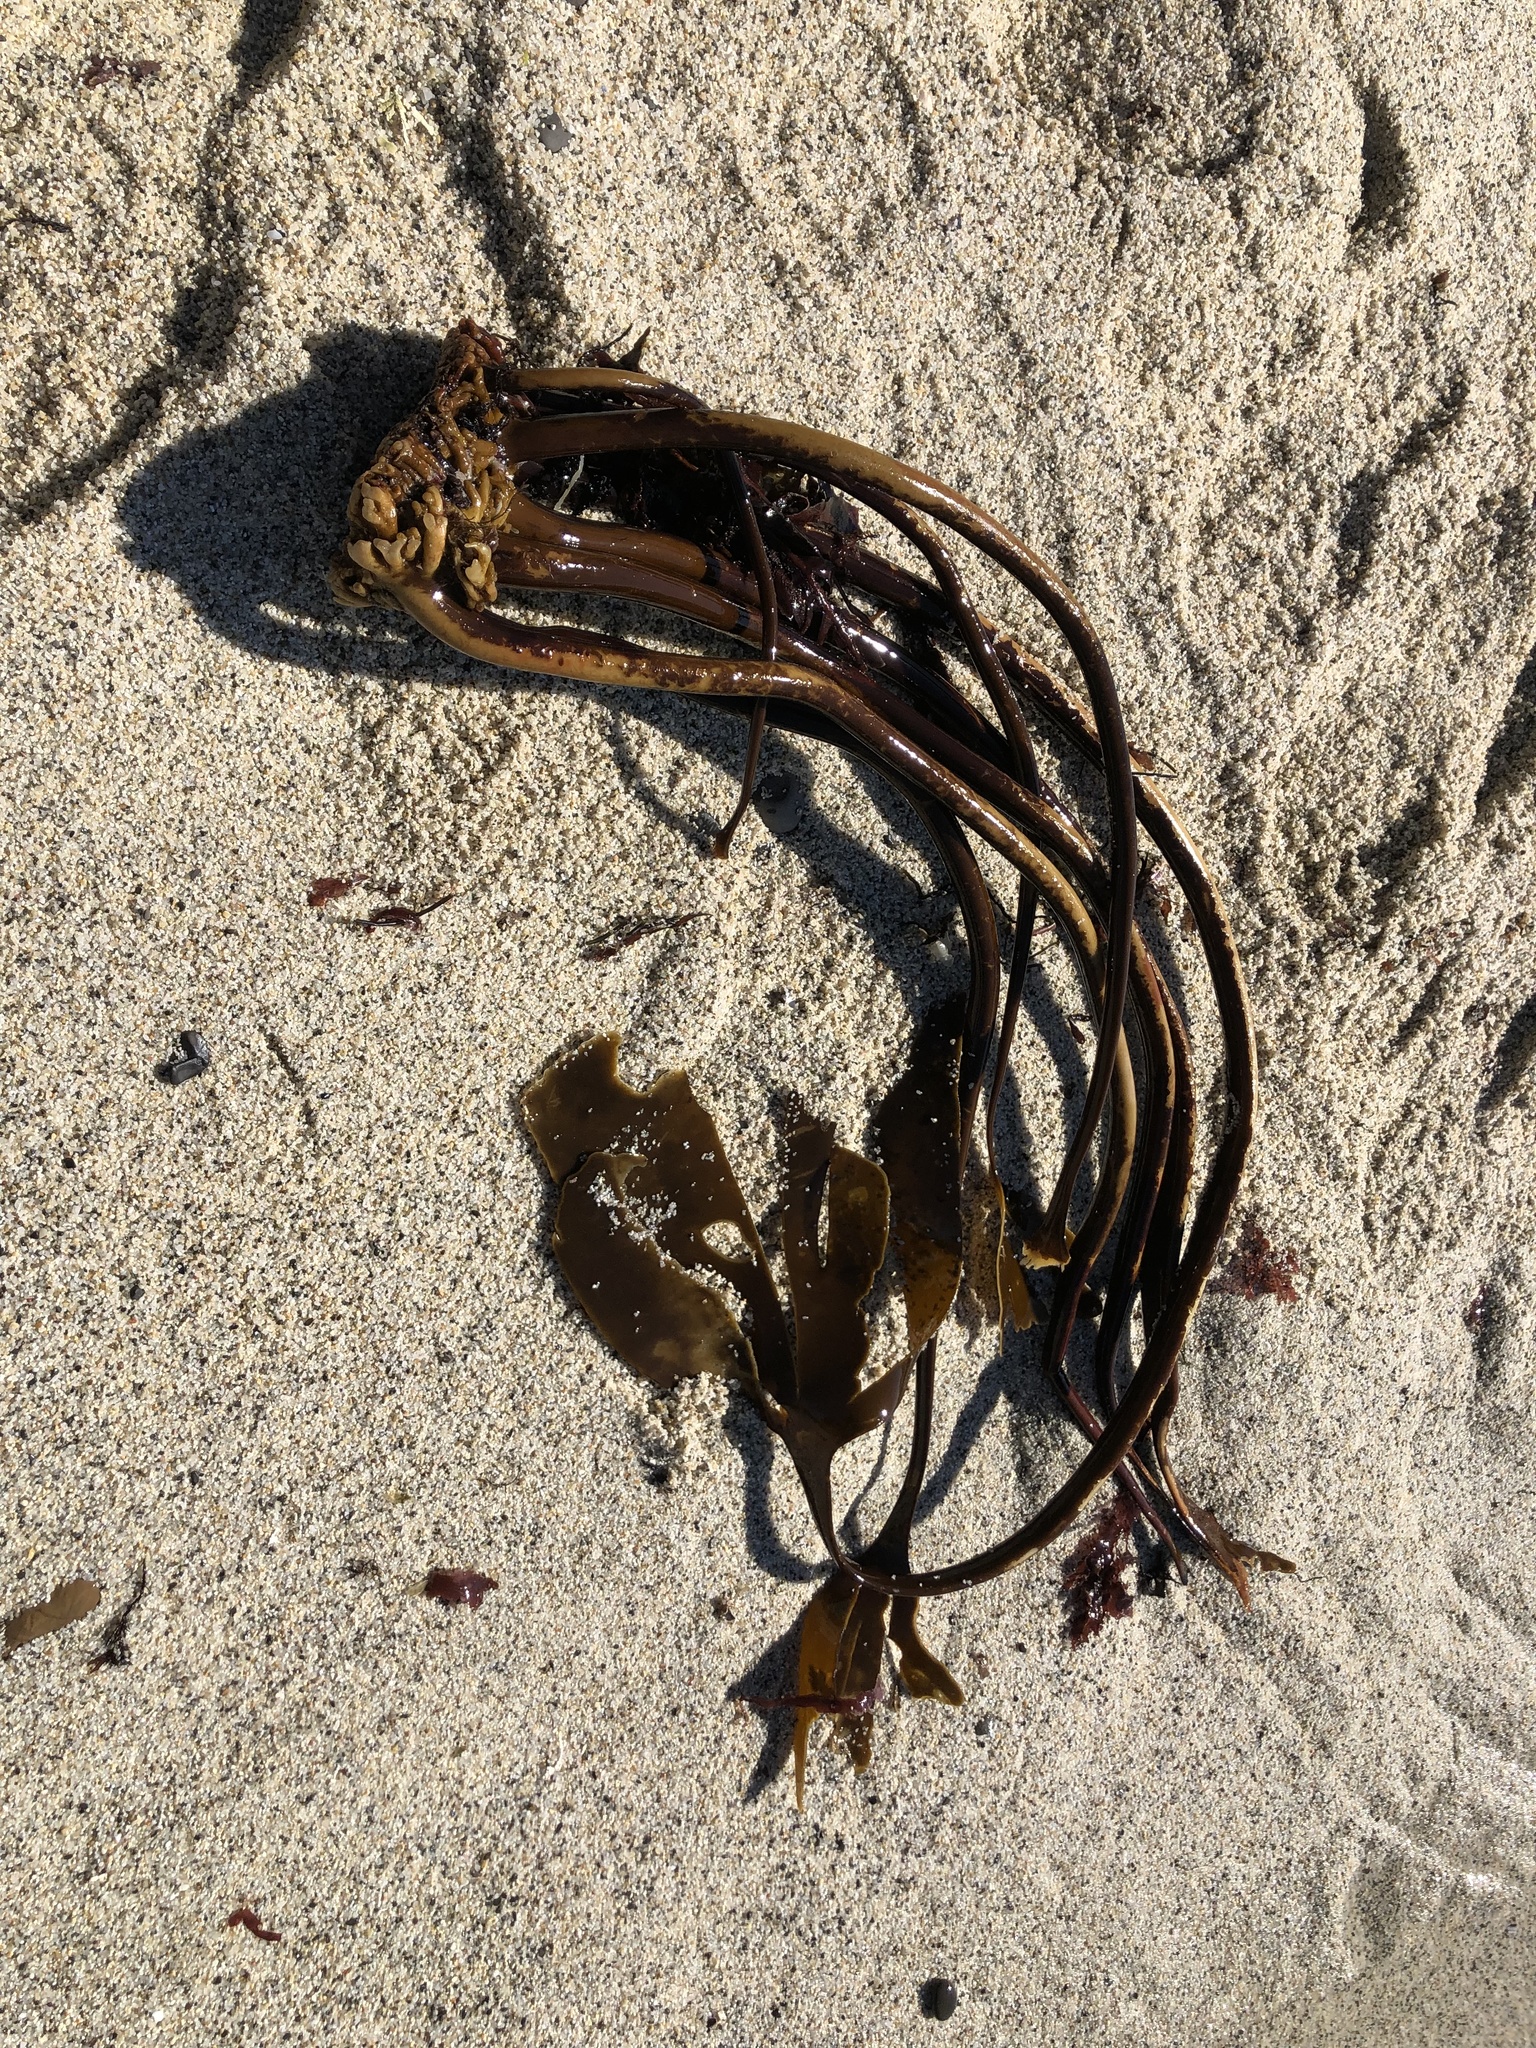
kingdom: Chromista
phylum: Ochrophyta
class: Phaeophyceae
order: Laminariales
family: Laminariaceae
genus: Laminaria
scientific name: Laminaria setchellii
